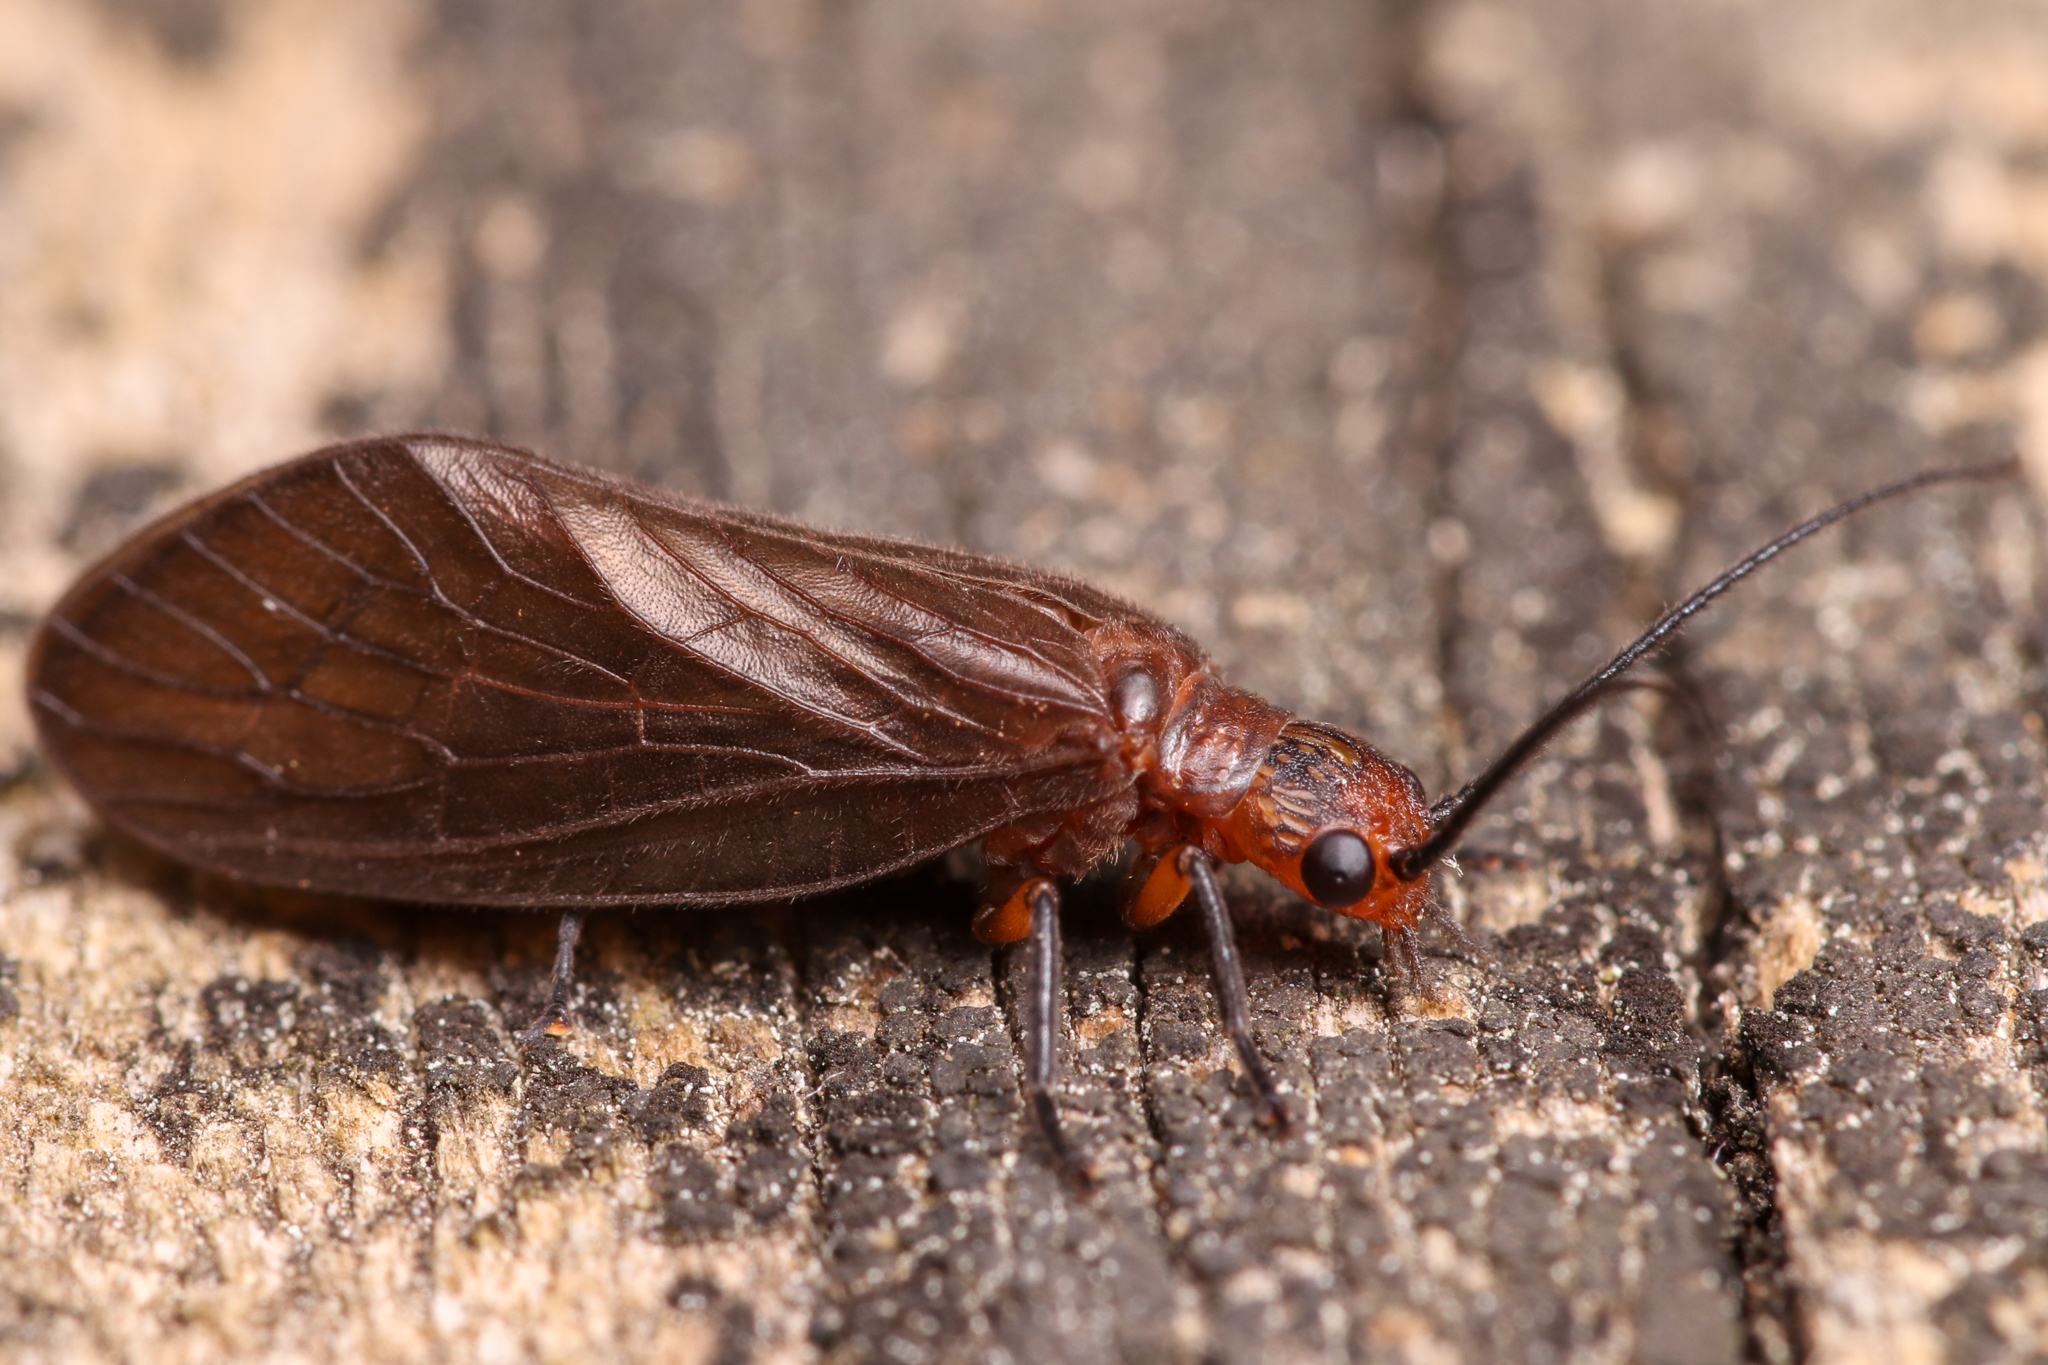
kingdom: Animalia
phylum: Arthropoda
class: Insecta
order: Megaloptera
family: Sialidae
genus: Protosialis
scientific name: Protosialis americana
